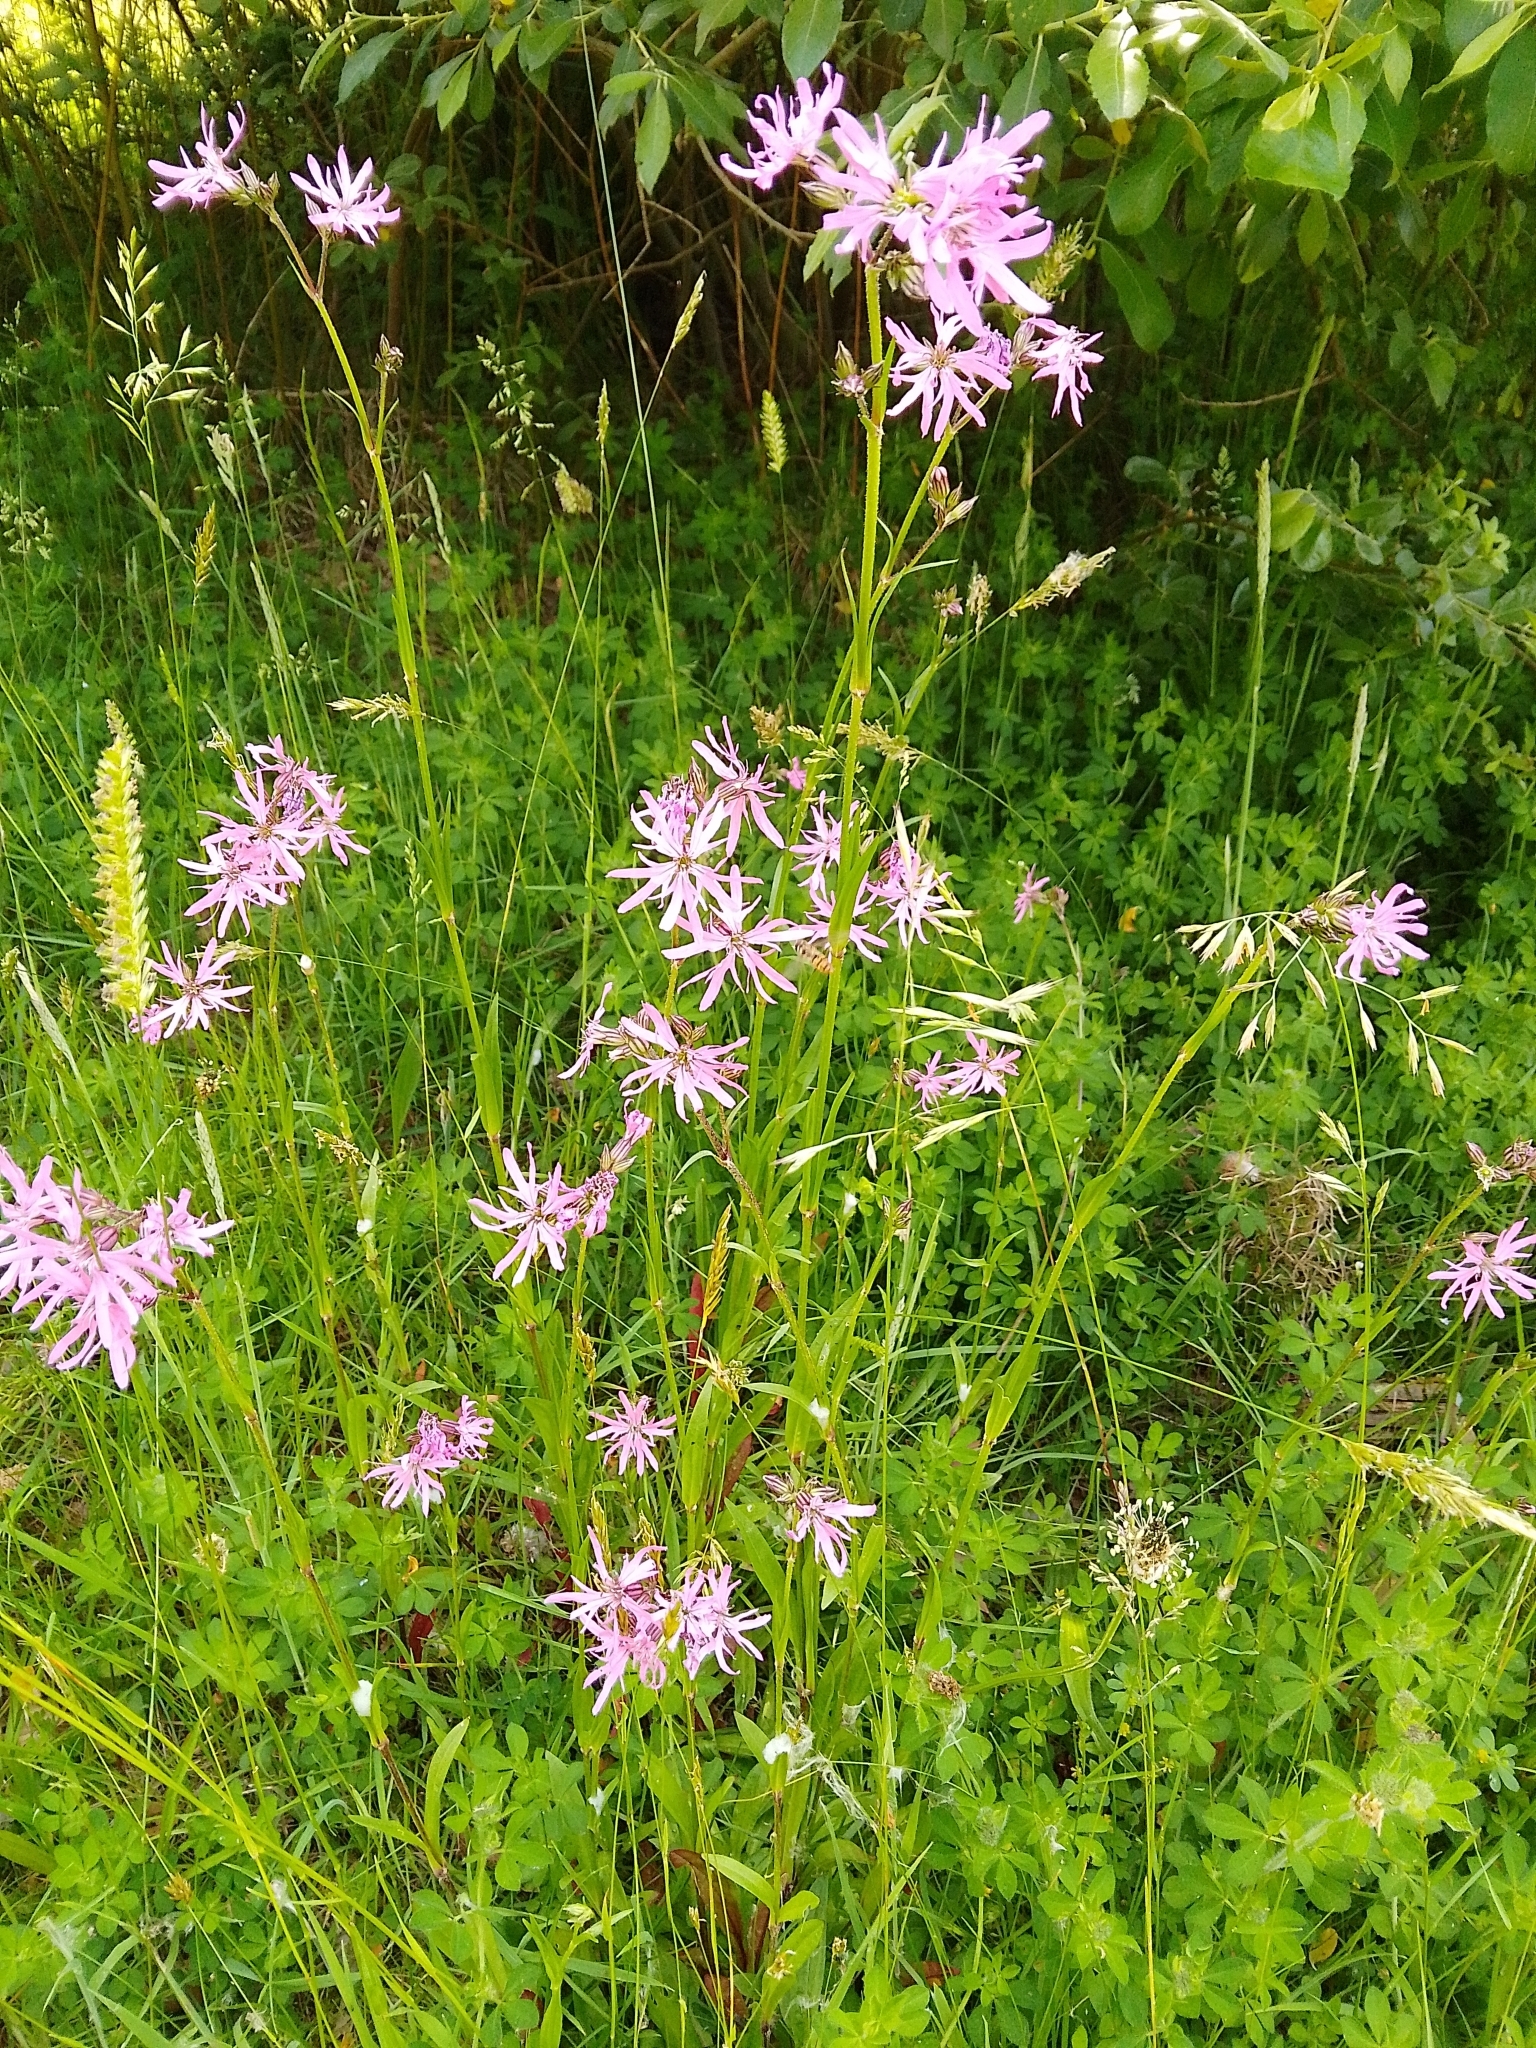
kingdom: Plantae
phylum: Tracheophyta
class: Magnoliopsida
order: Caryophyllales
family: Caryophyllaceae
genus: Silene
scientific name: Silene flos-cuculi
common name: Ragged-robin
